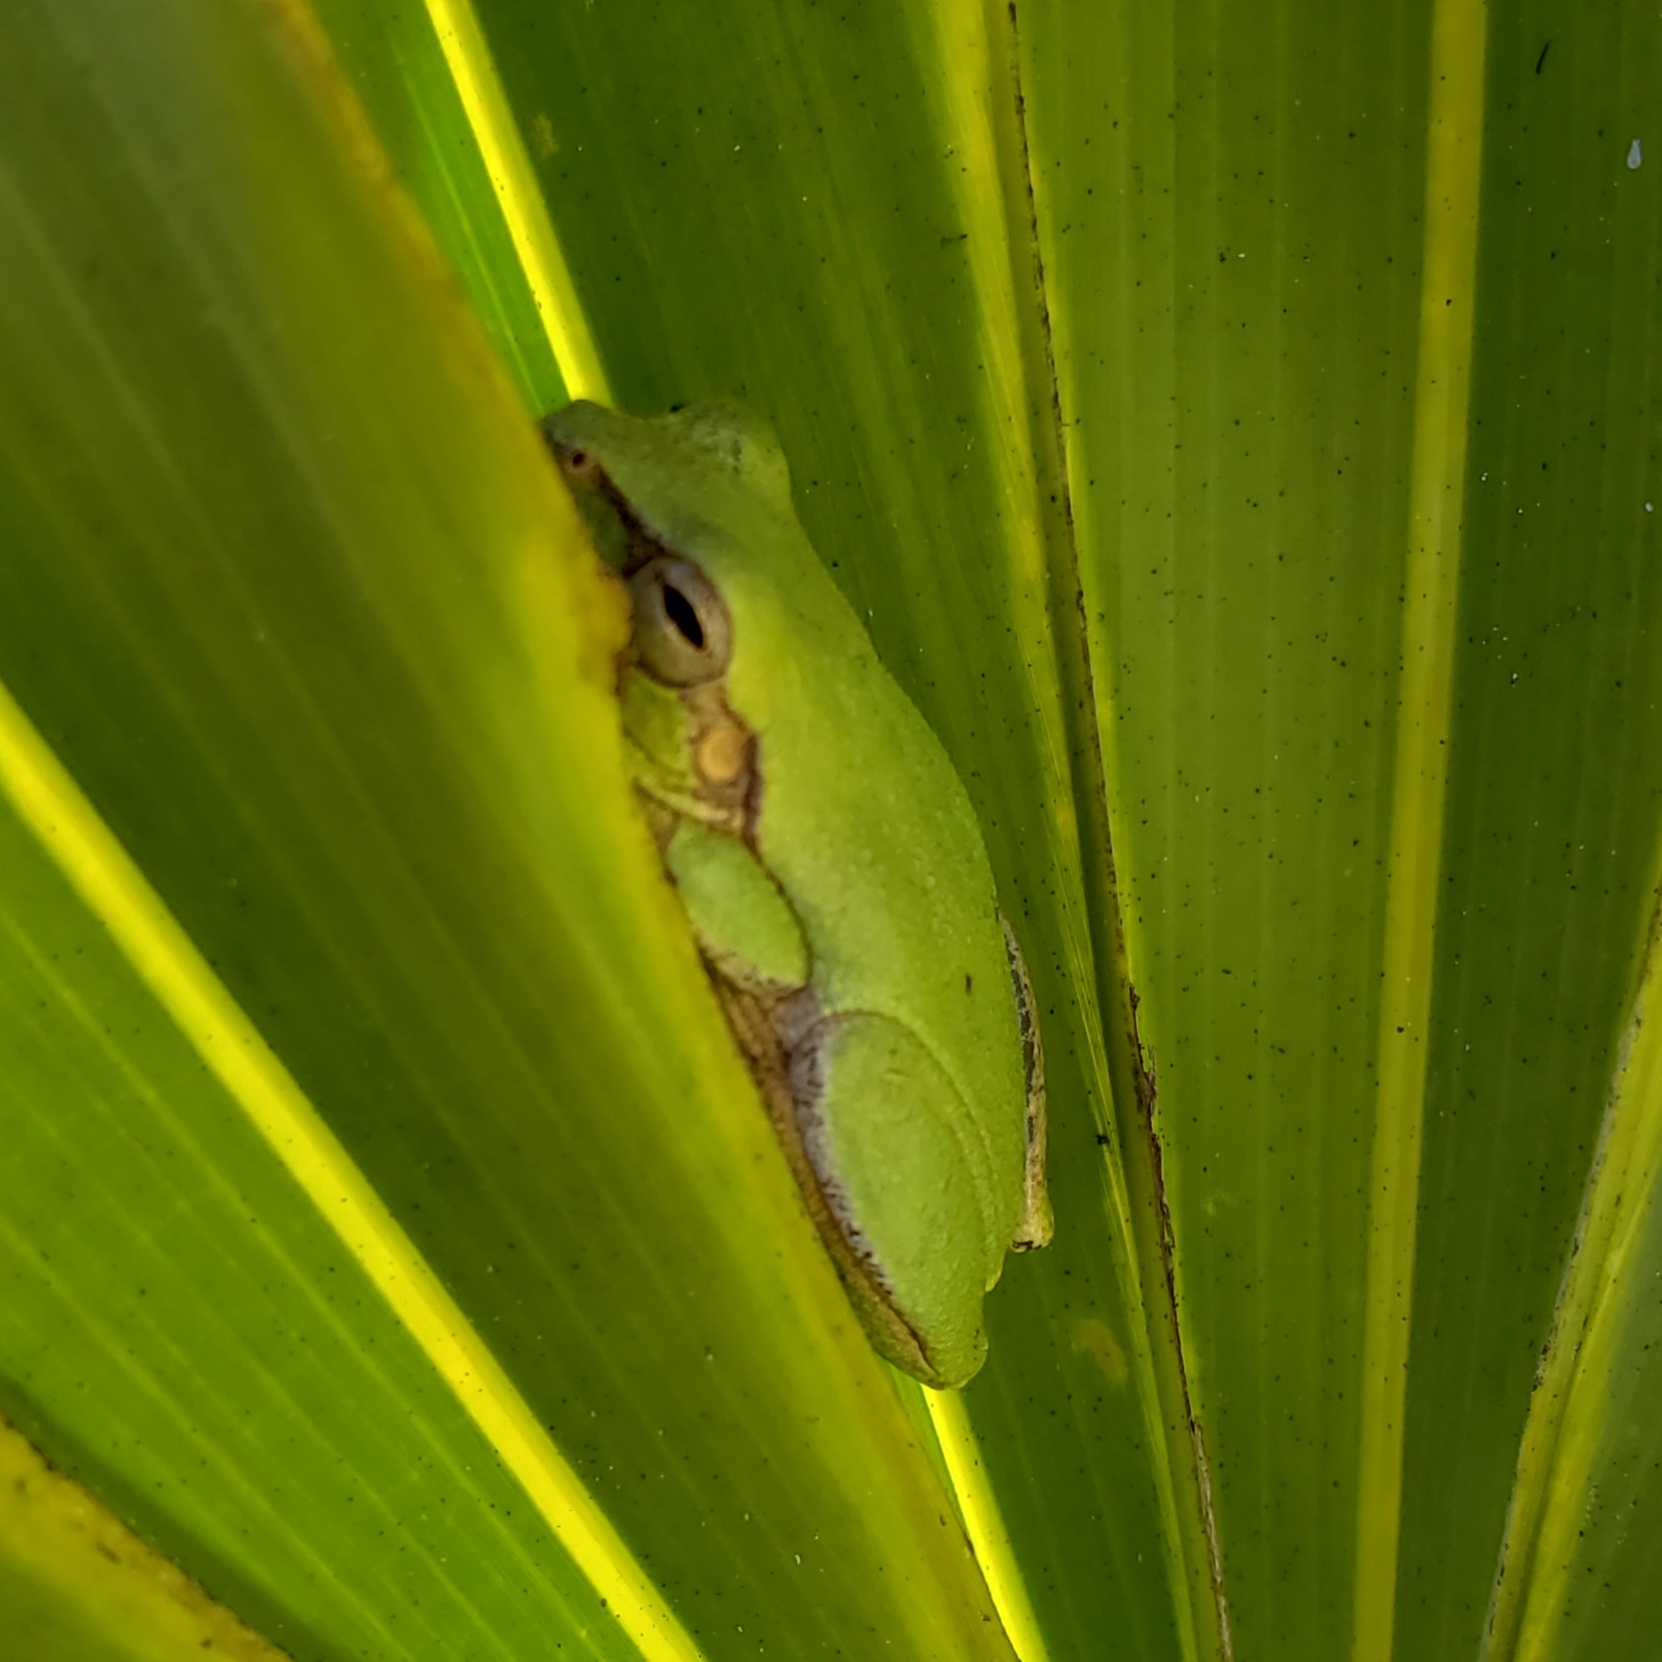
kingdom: Animalia
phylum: Chordata
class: Amphibia
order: Anura
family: Hylidae
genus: Hyla
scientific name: Hyla femoralis
